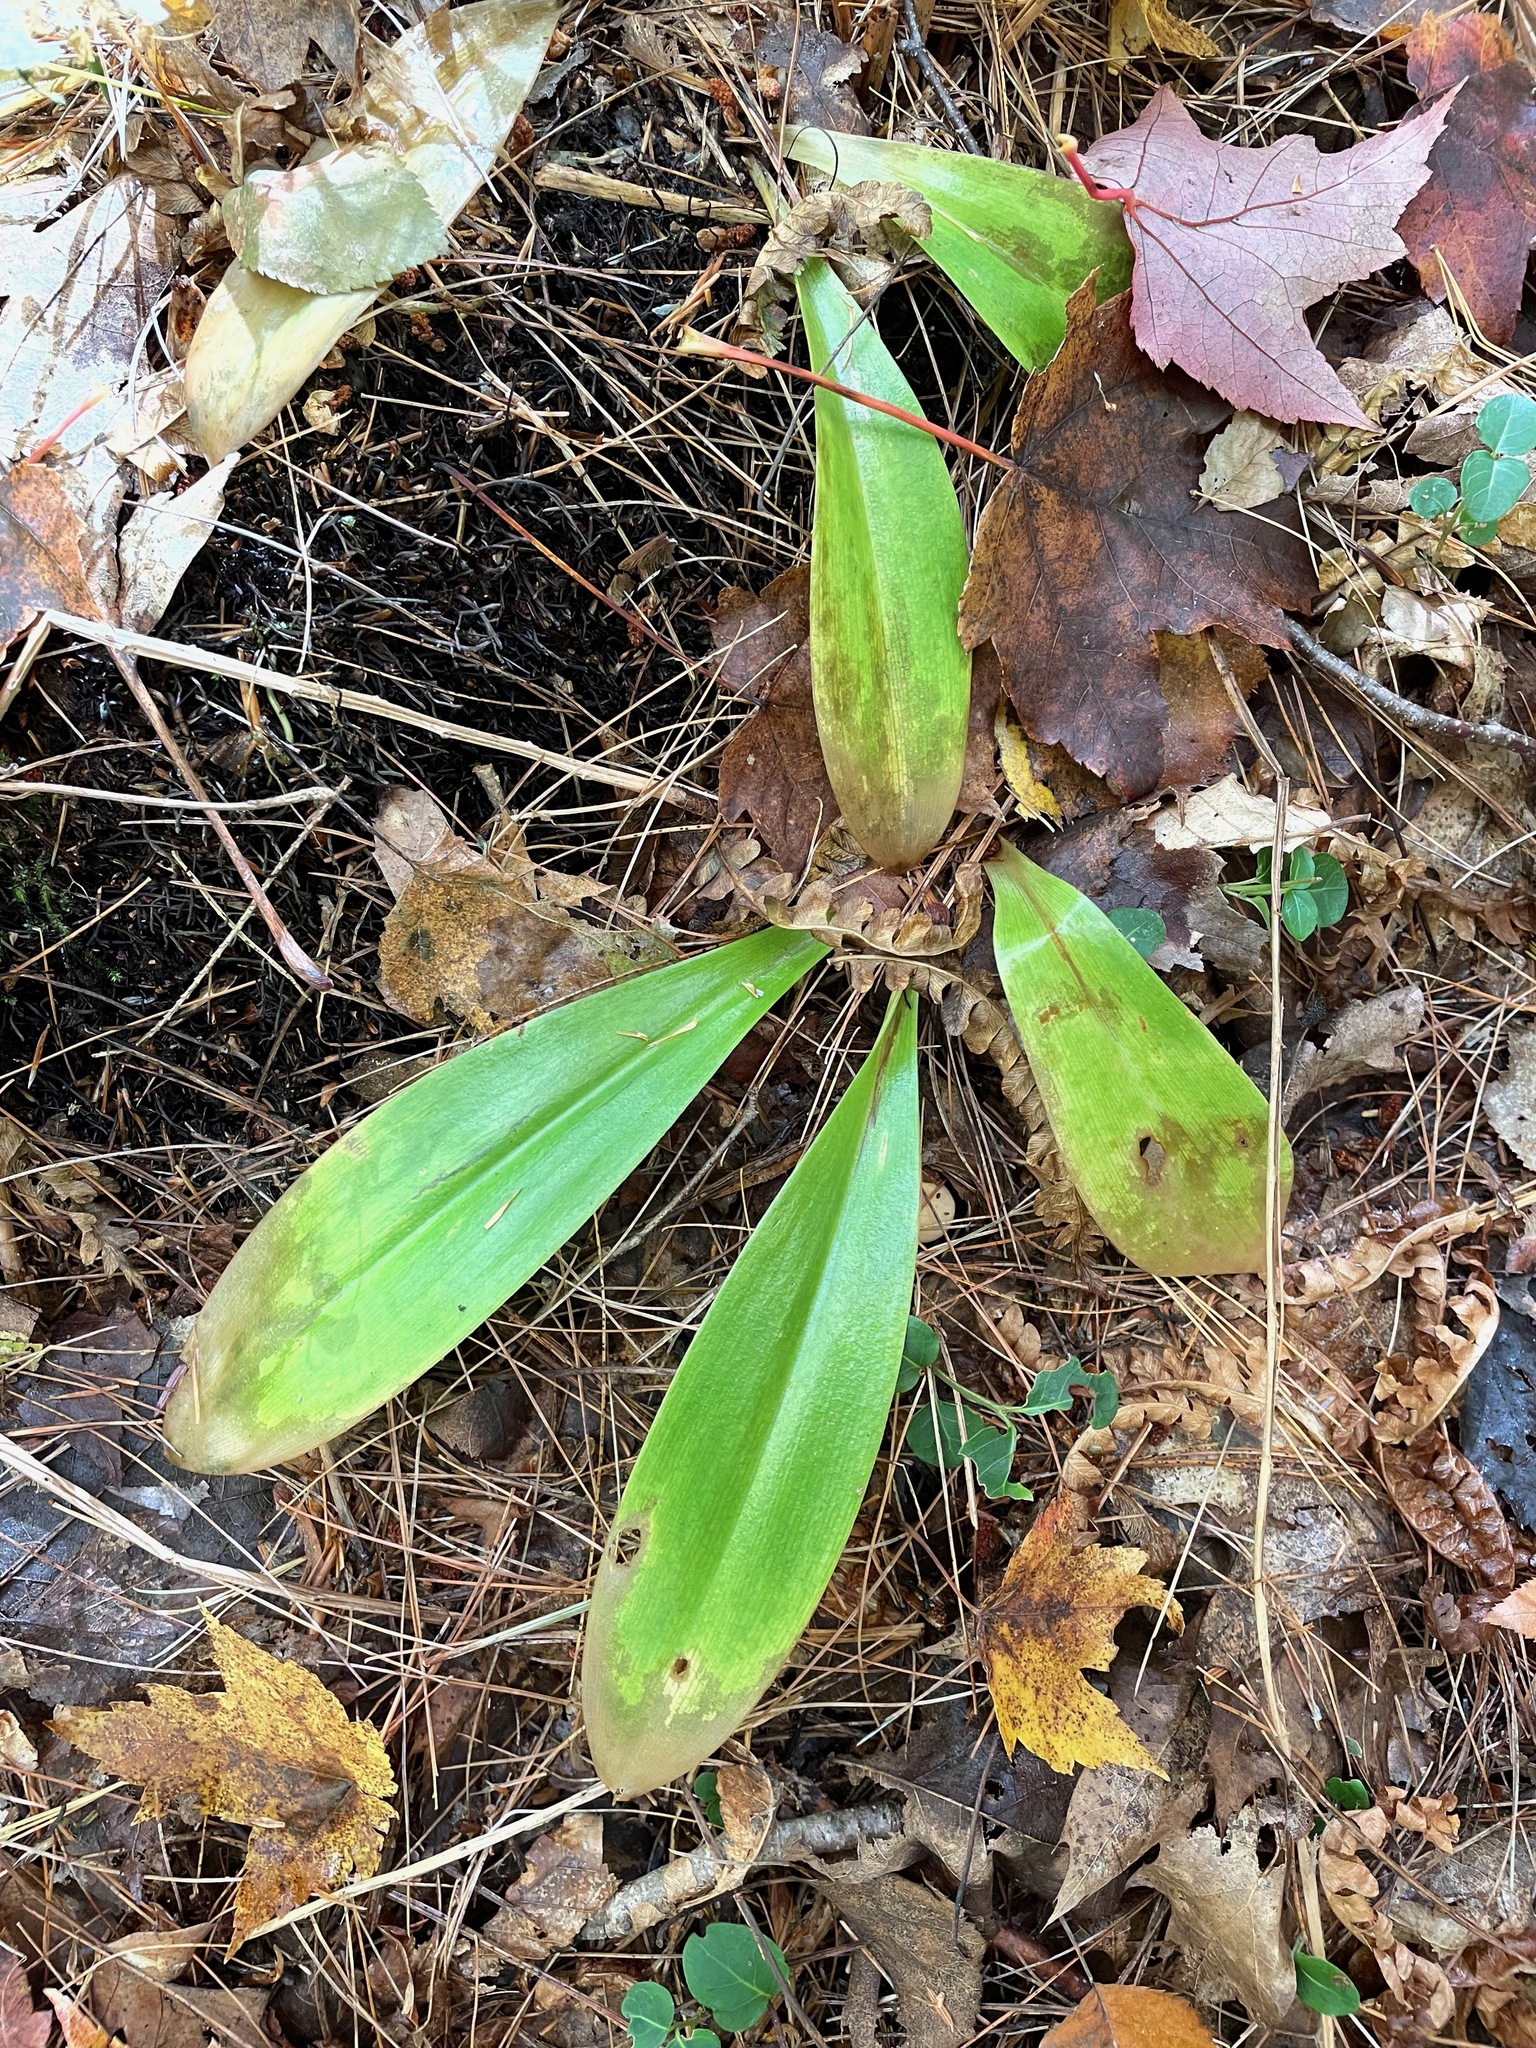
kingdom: Plantae
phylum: Tracheophyta
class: Liliopsida
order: Liliales
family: Liliaceae
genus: Clintonia
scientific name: Clintonia borealis
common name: Yellow clintonia
